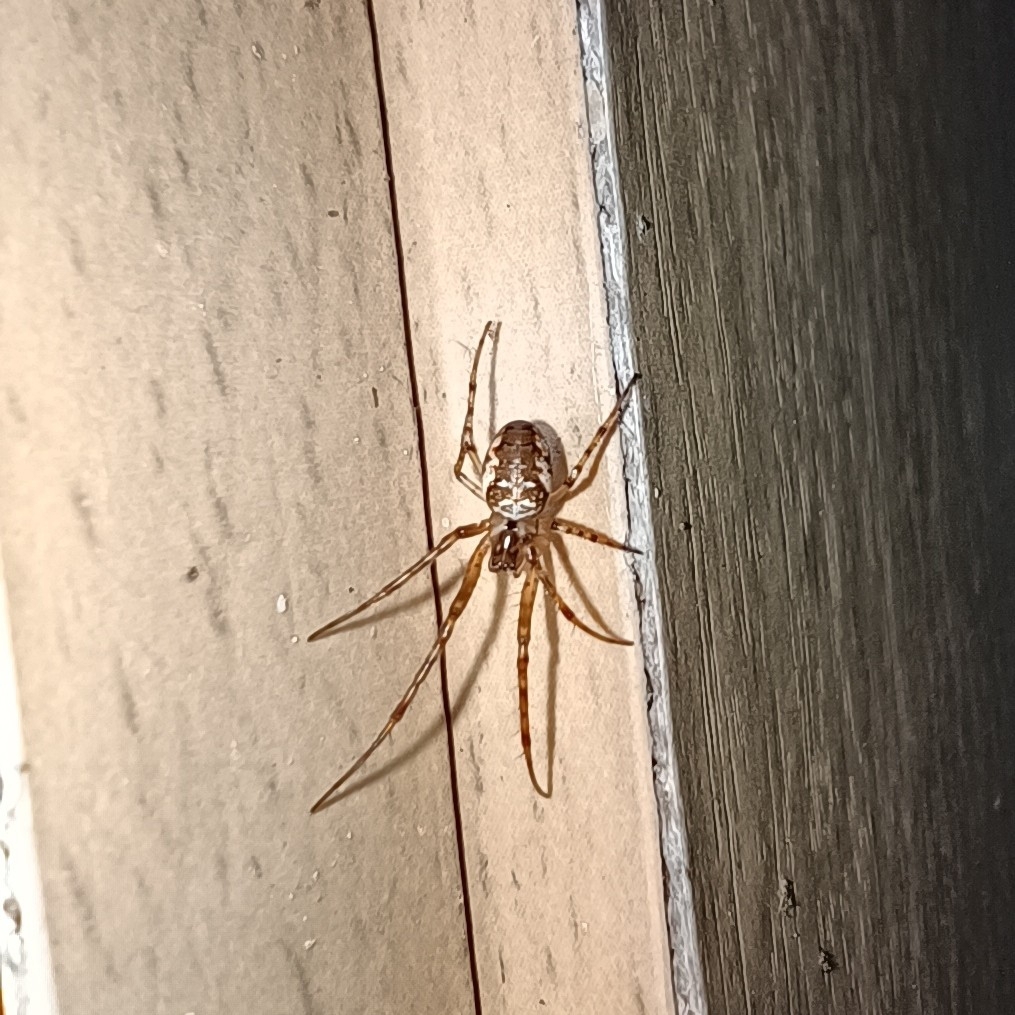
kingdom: Animalia
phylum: Arthropoda
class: Arachnida
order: Araneae
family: Tetragnathidae
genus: Metellina
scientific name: Metellina
